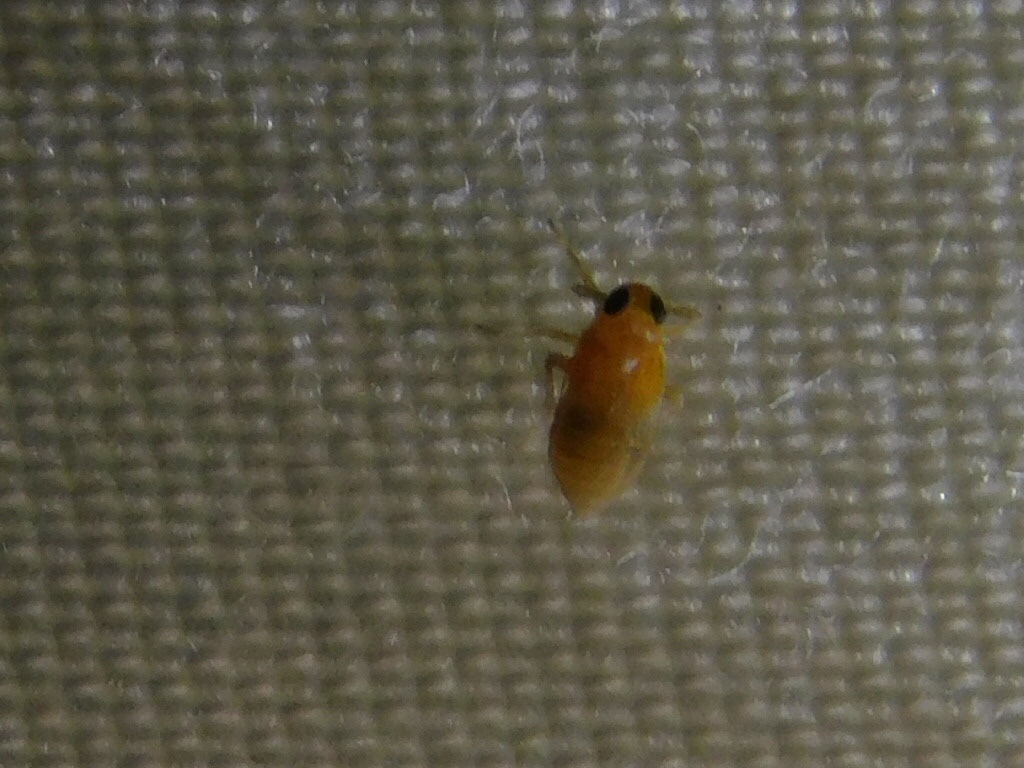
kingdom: Animalia
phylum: Arthropoda
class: Insecta
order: Hemiptera
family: Delphacidae
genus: Flavoclypeus
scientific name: Flavoclypeus andromedus
